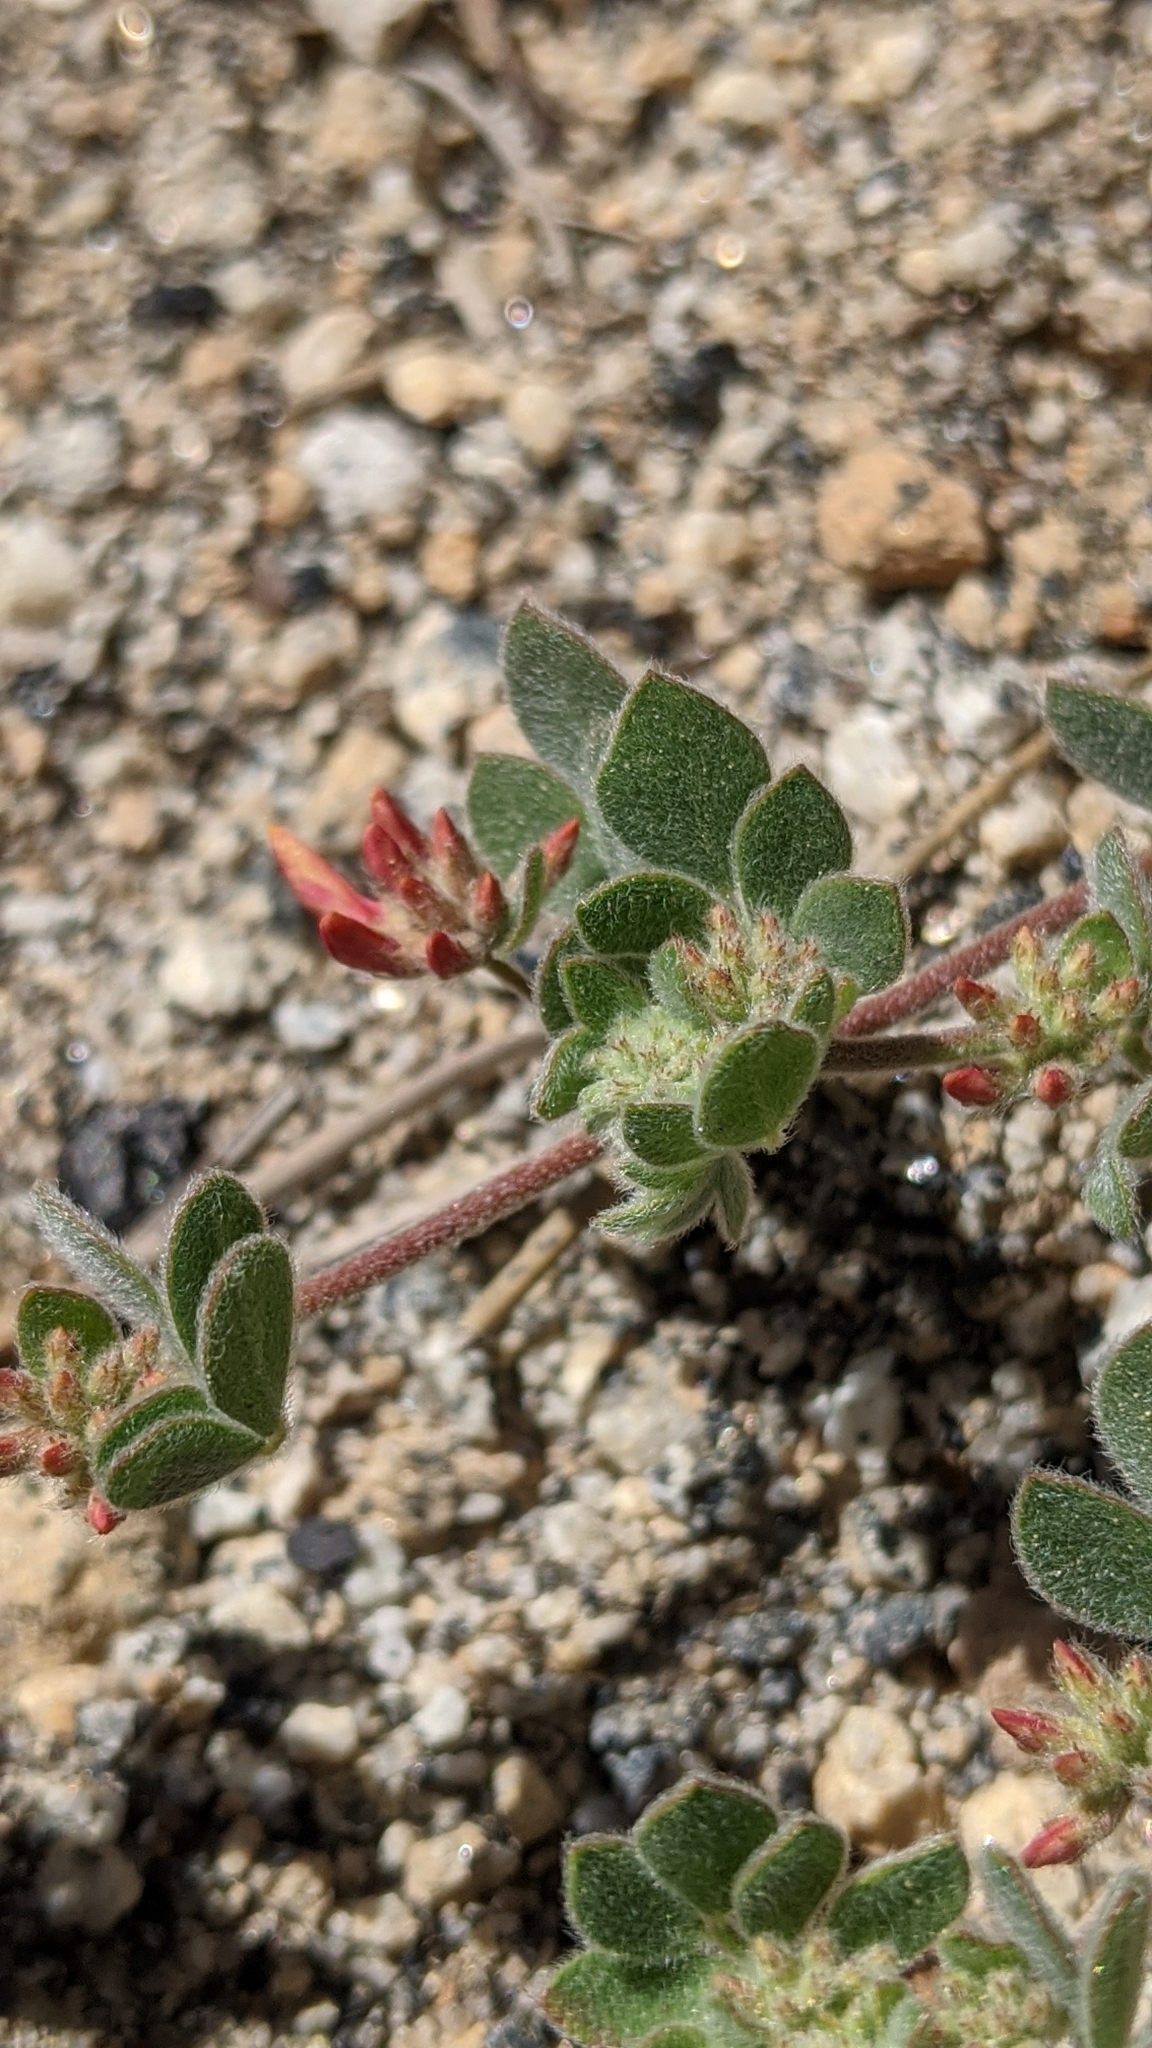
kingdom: Plantae
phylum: Tracheophyta
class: Magnoliopsida
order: Fabales
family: Fabaceae
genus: Acmispon
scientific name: Acmispon decumbens
